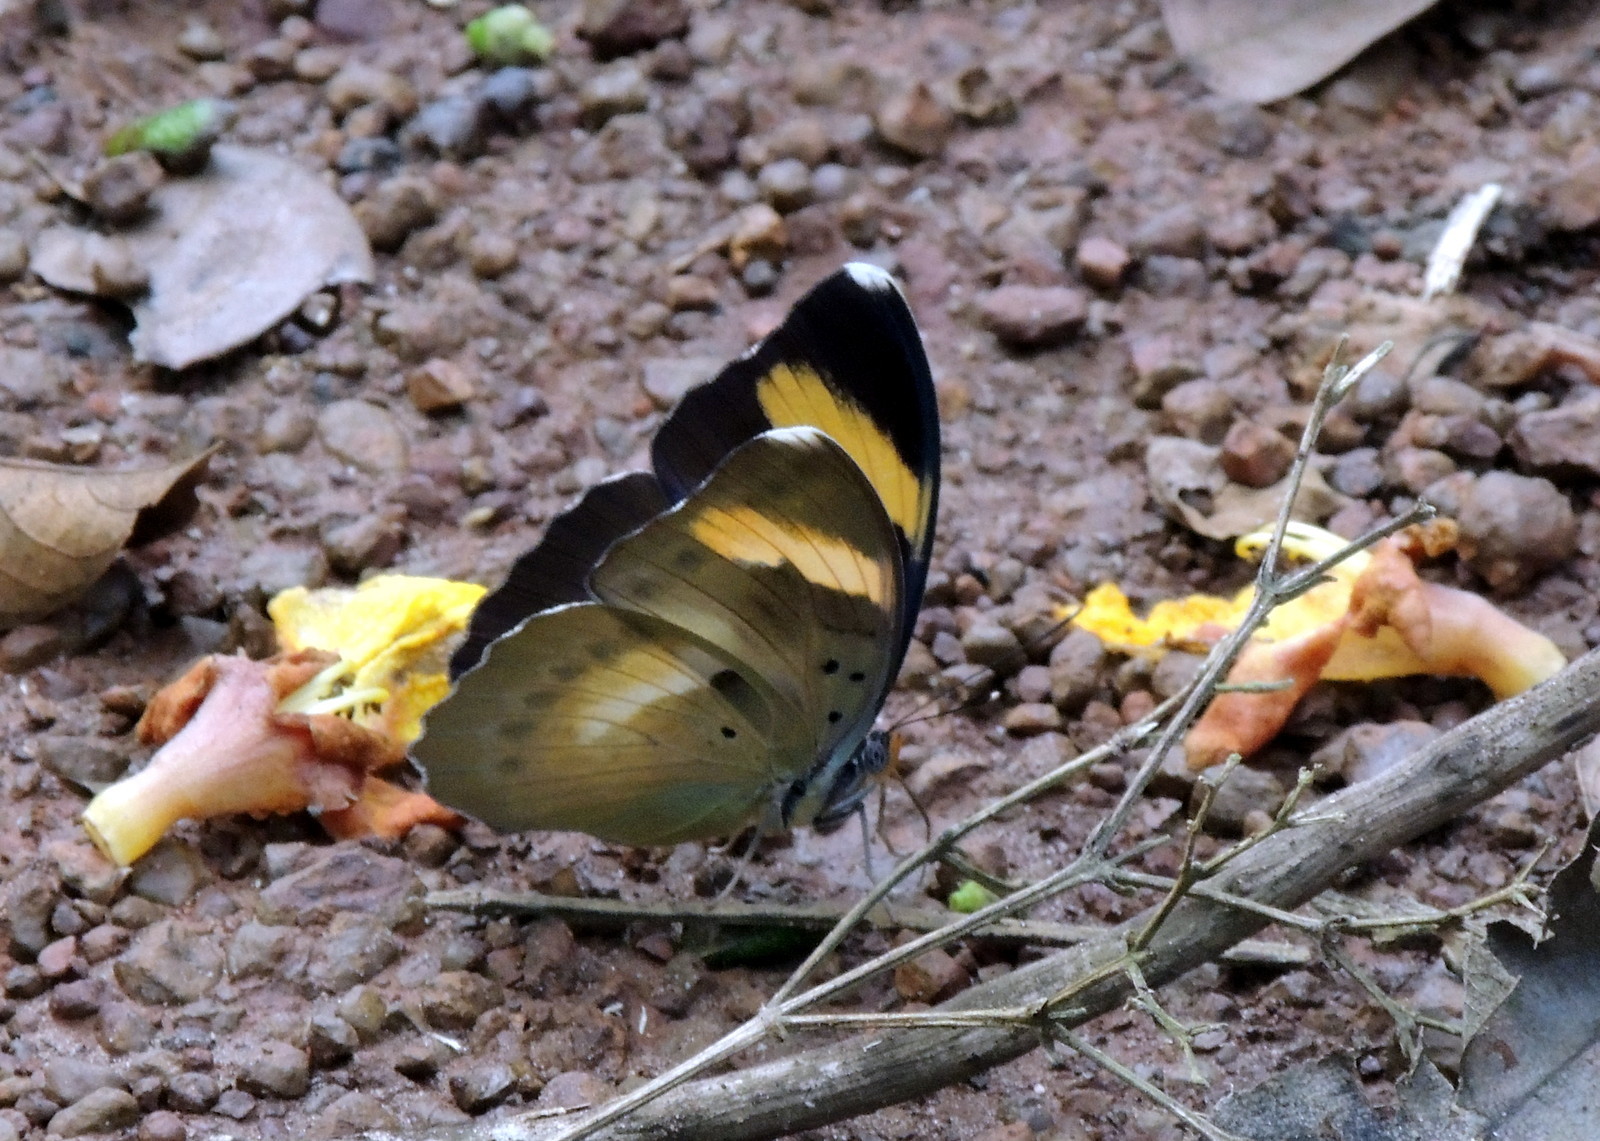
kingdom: Animalia
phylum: Arthropoda
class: Insecta
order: Lepidoptera
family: Nymphalidae
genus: Euphaedra
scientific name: Euphaedra medon
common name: Widespread forester
